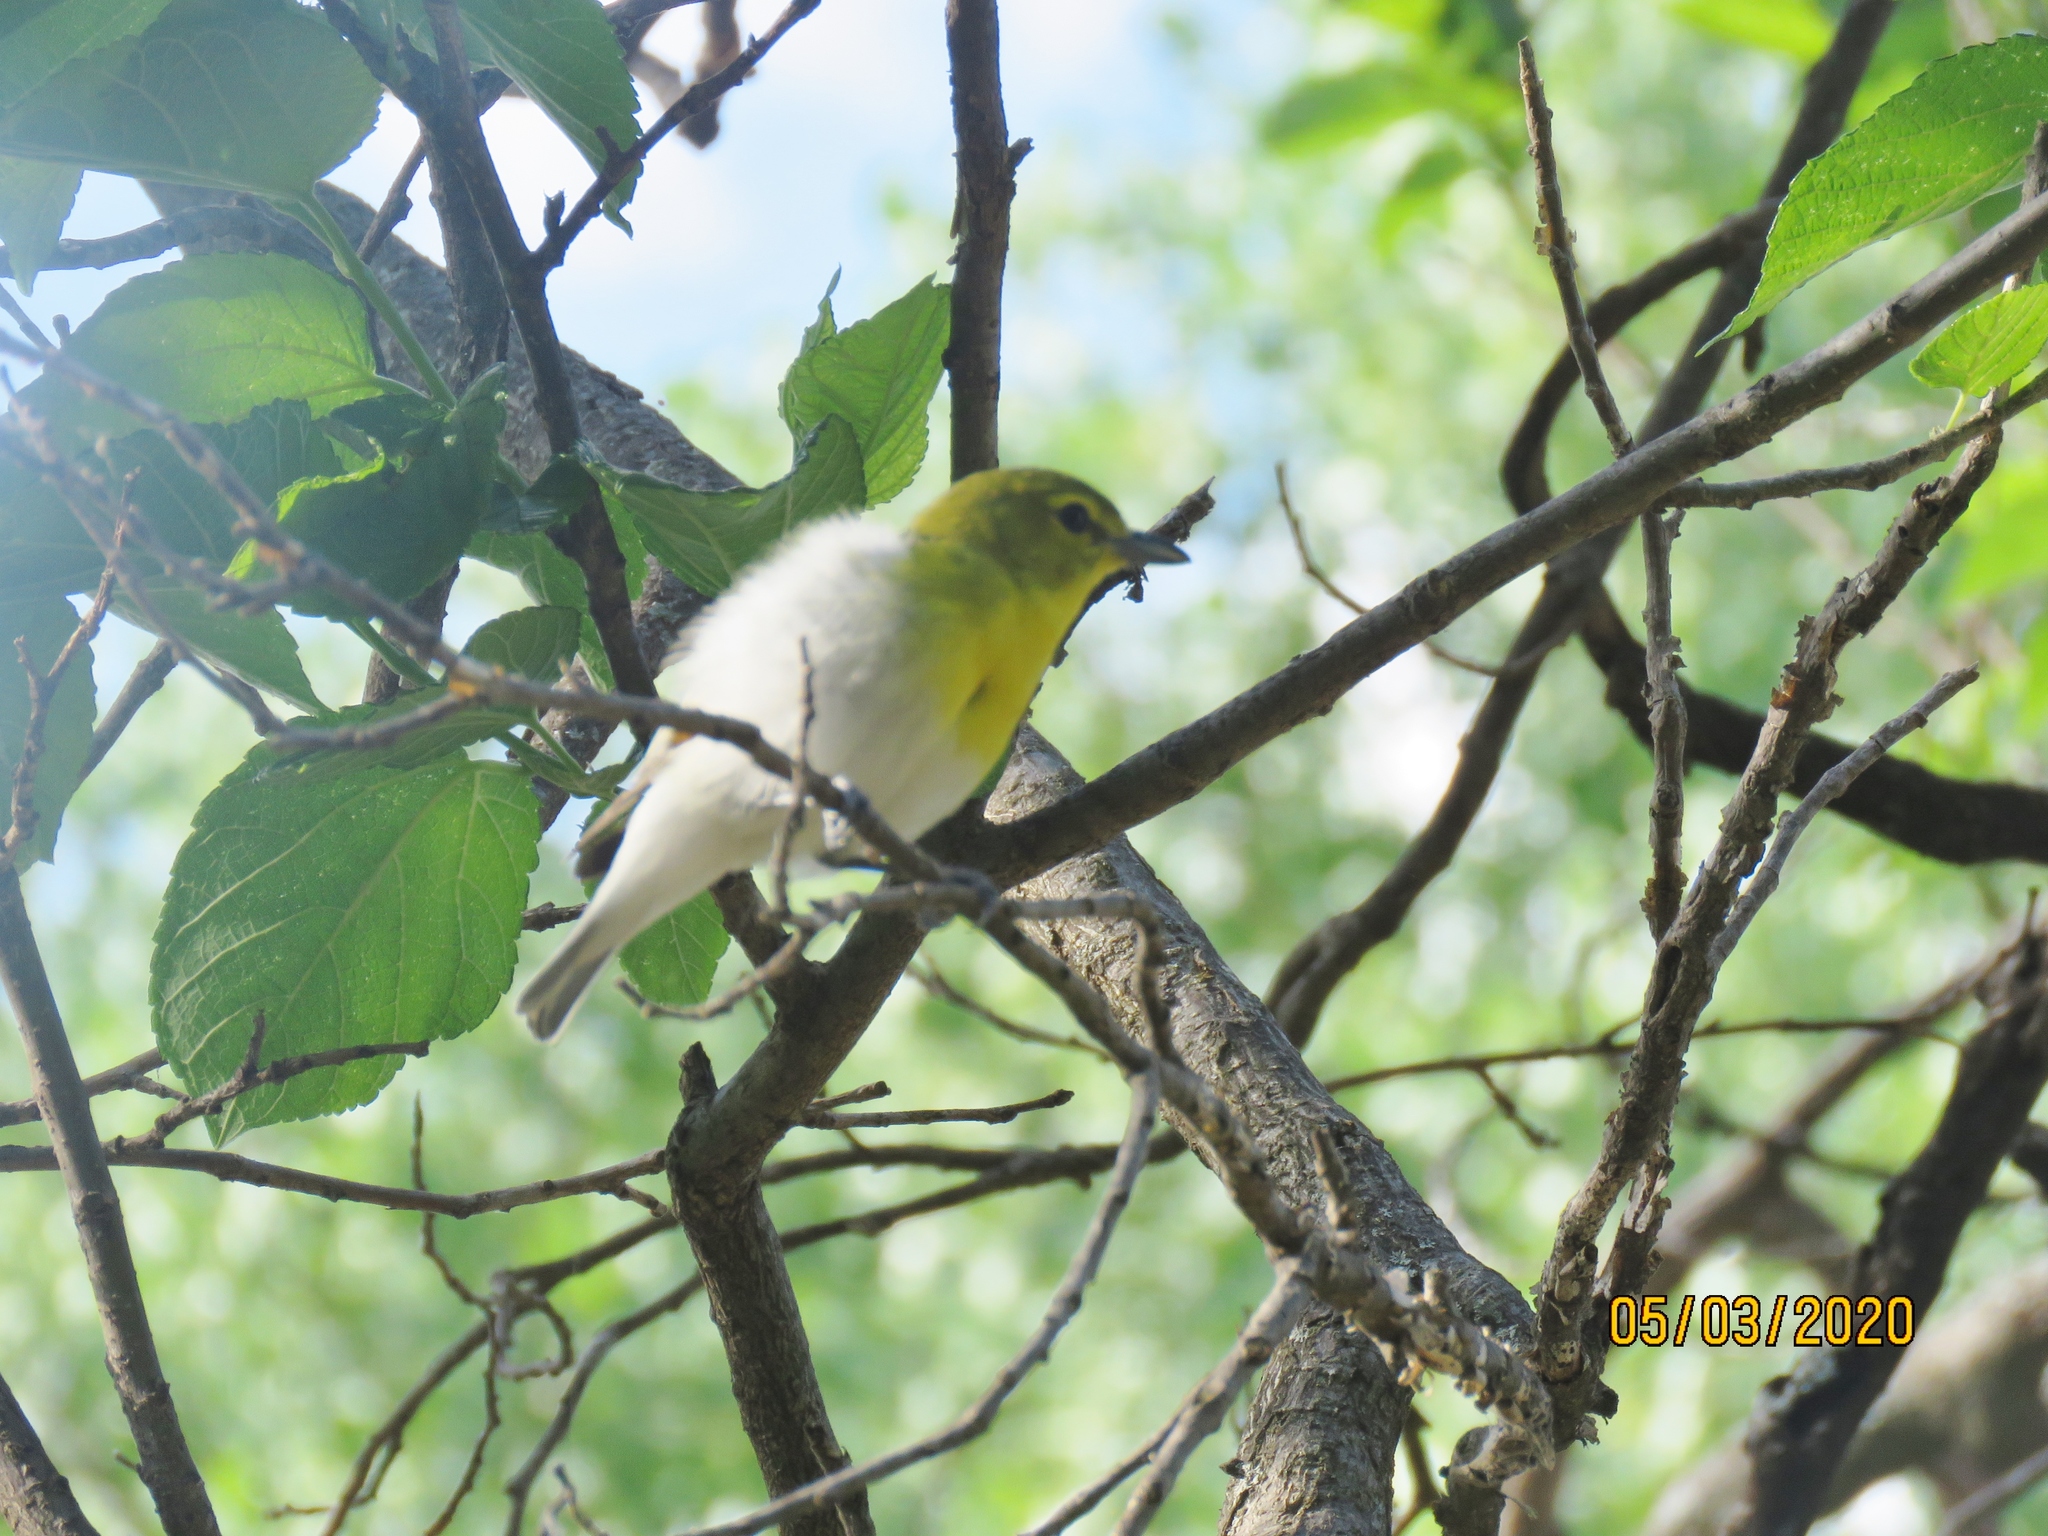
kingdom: Animalia
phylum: Chordata
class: Aves
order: Passeriformes
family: Vireonidae
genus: Vireo
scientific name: Vireo flavifrons
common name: Yellow-throated vireo
